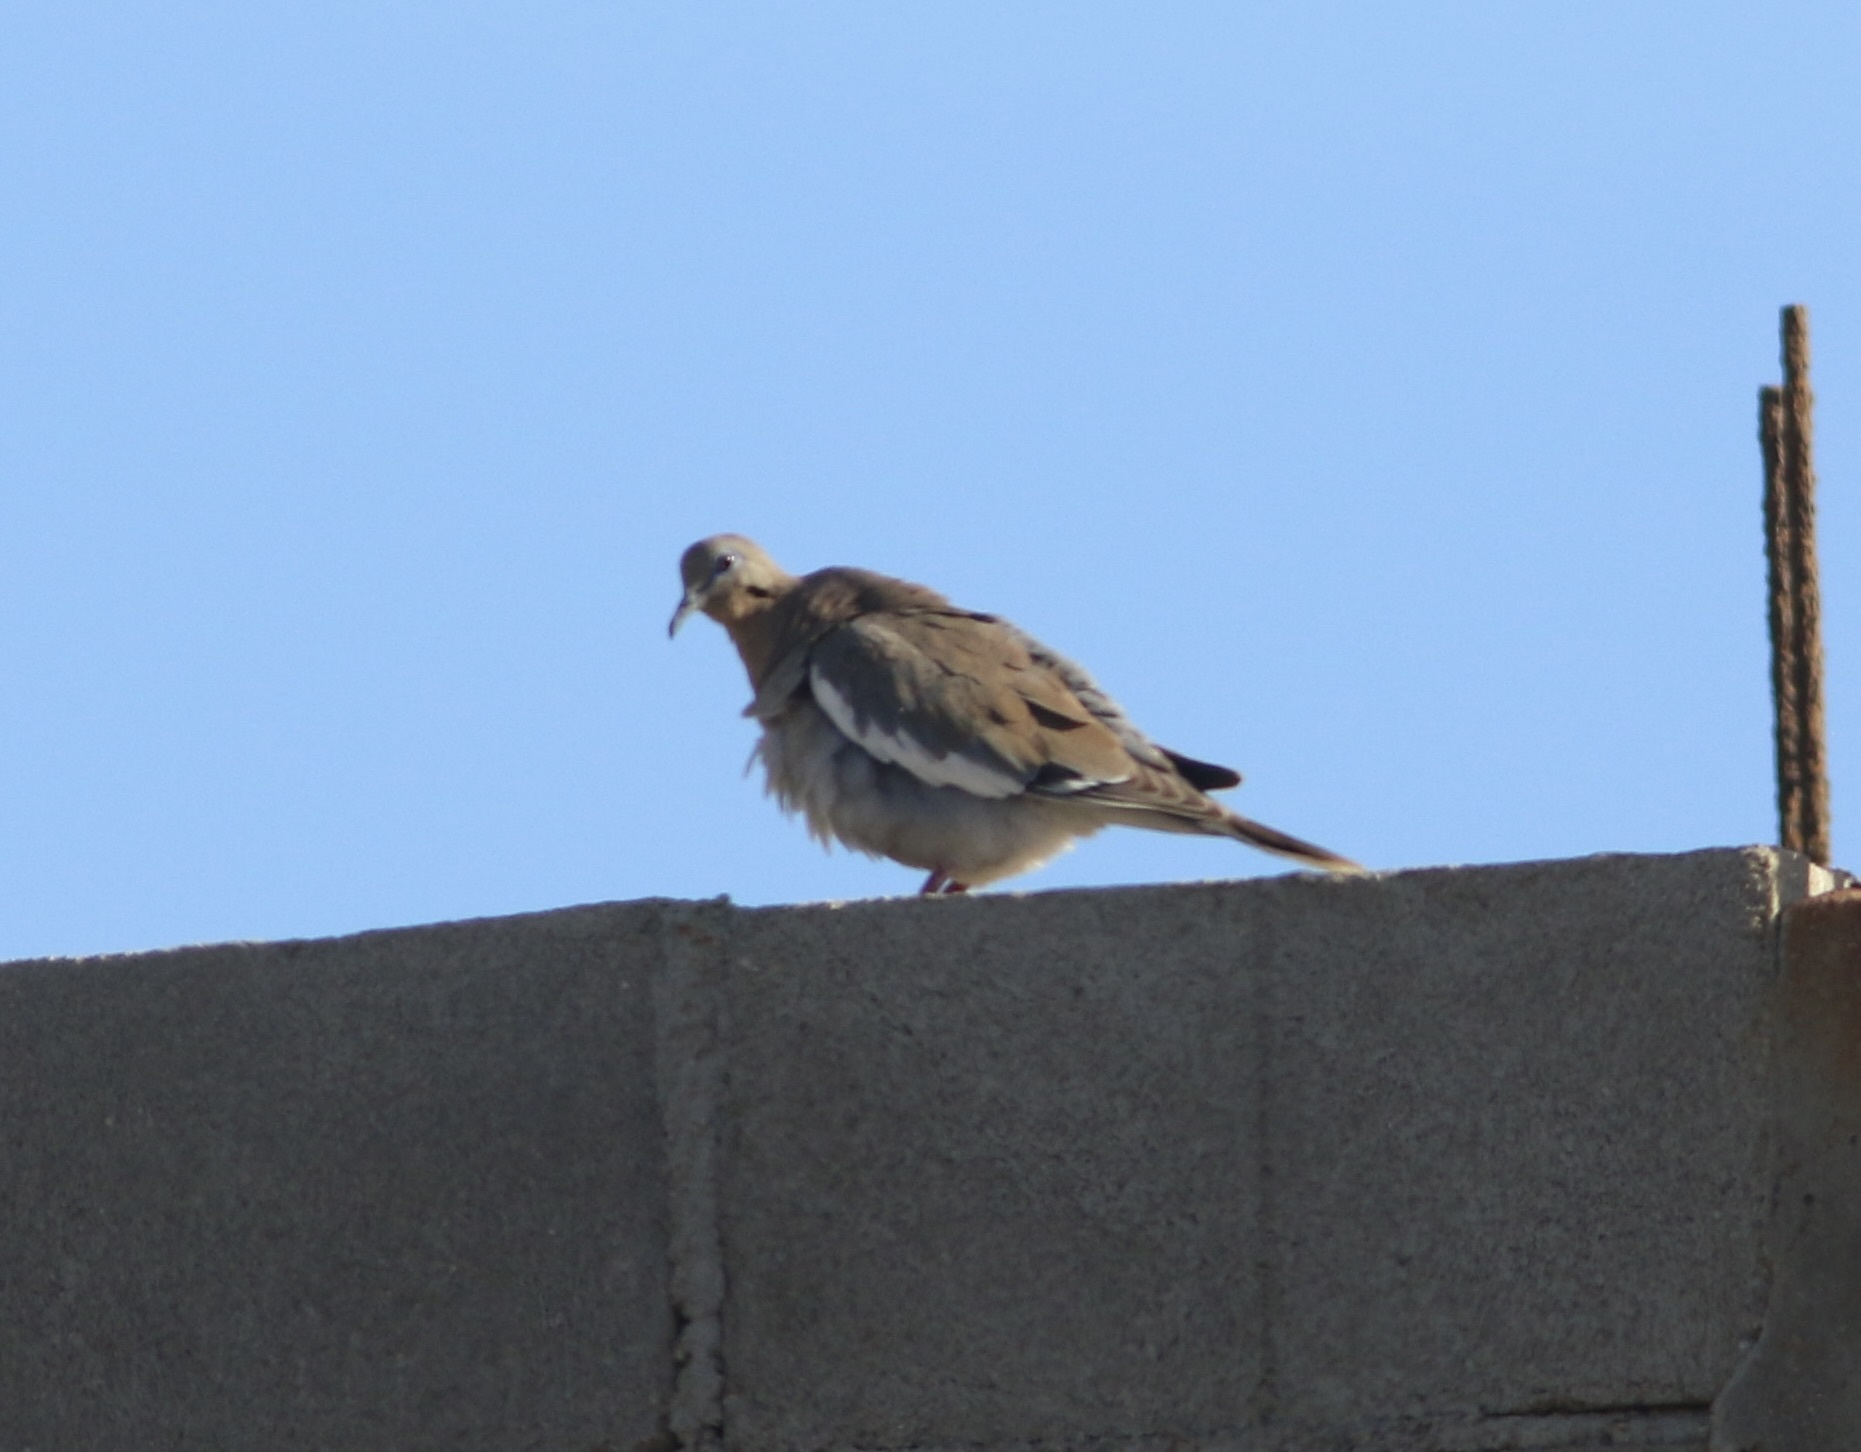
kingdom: Animalia
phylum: Chordata
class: Aves
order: Columbiformes
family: Columbidae
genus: Zenaida
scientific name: Zenaida asiatica
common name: White-winged dove
